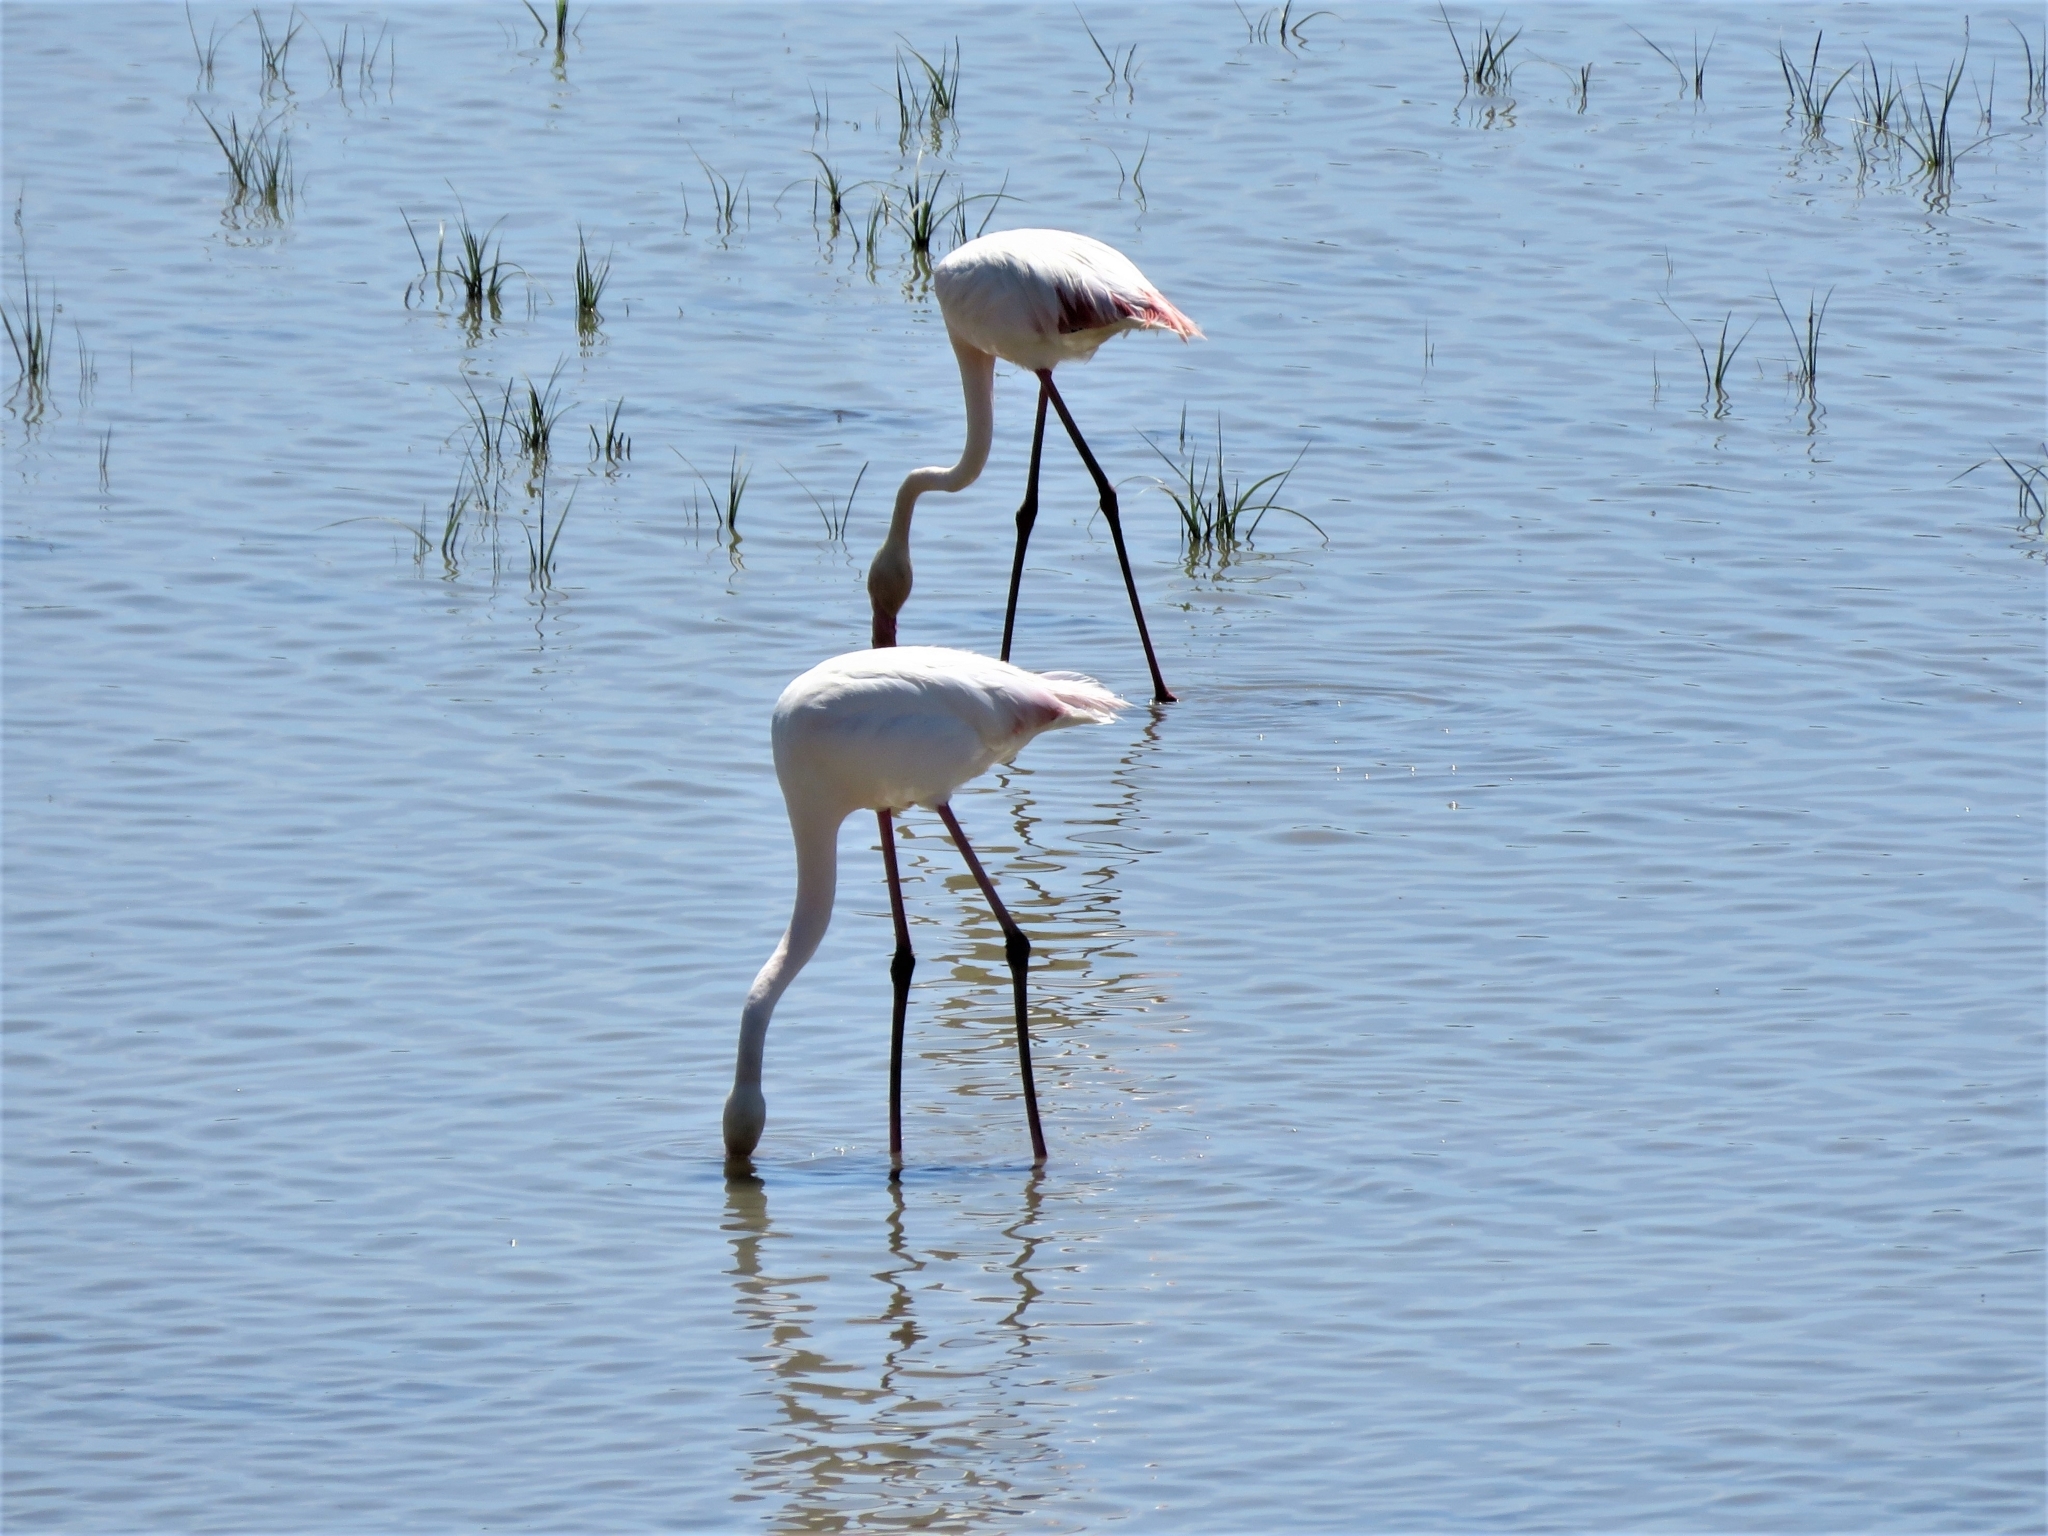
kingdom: Animalia
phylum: Chordata
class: Aves
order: Phoenicopteriformes
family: Phoenicopteridae
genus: Phoenicopterus
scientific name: Phoenicopterus roseus
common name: Greater flamingo
